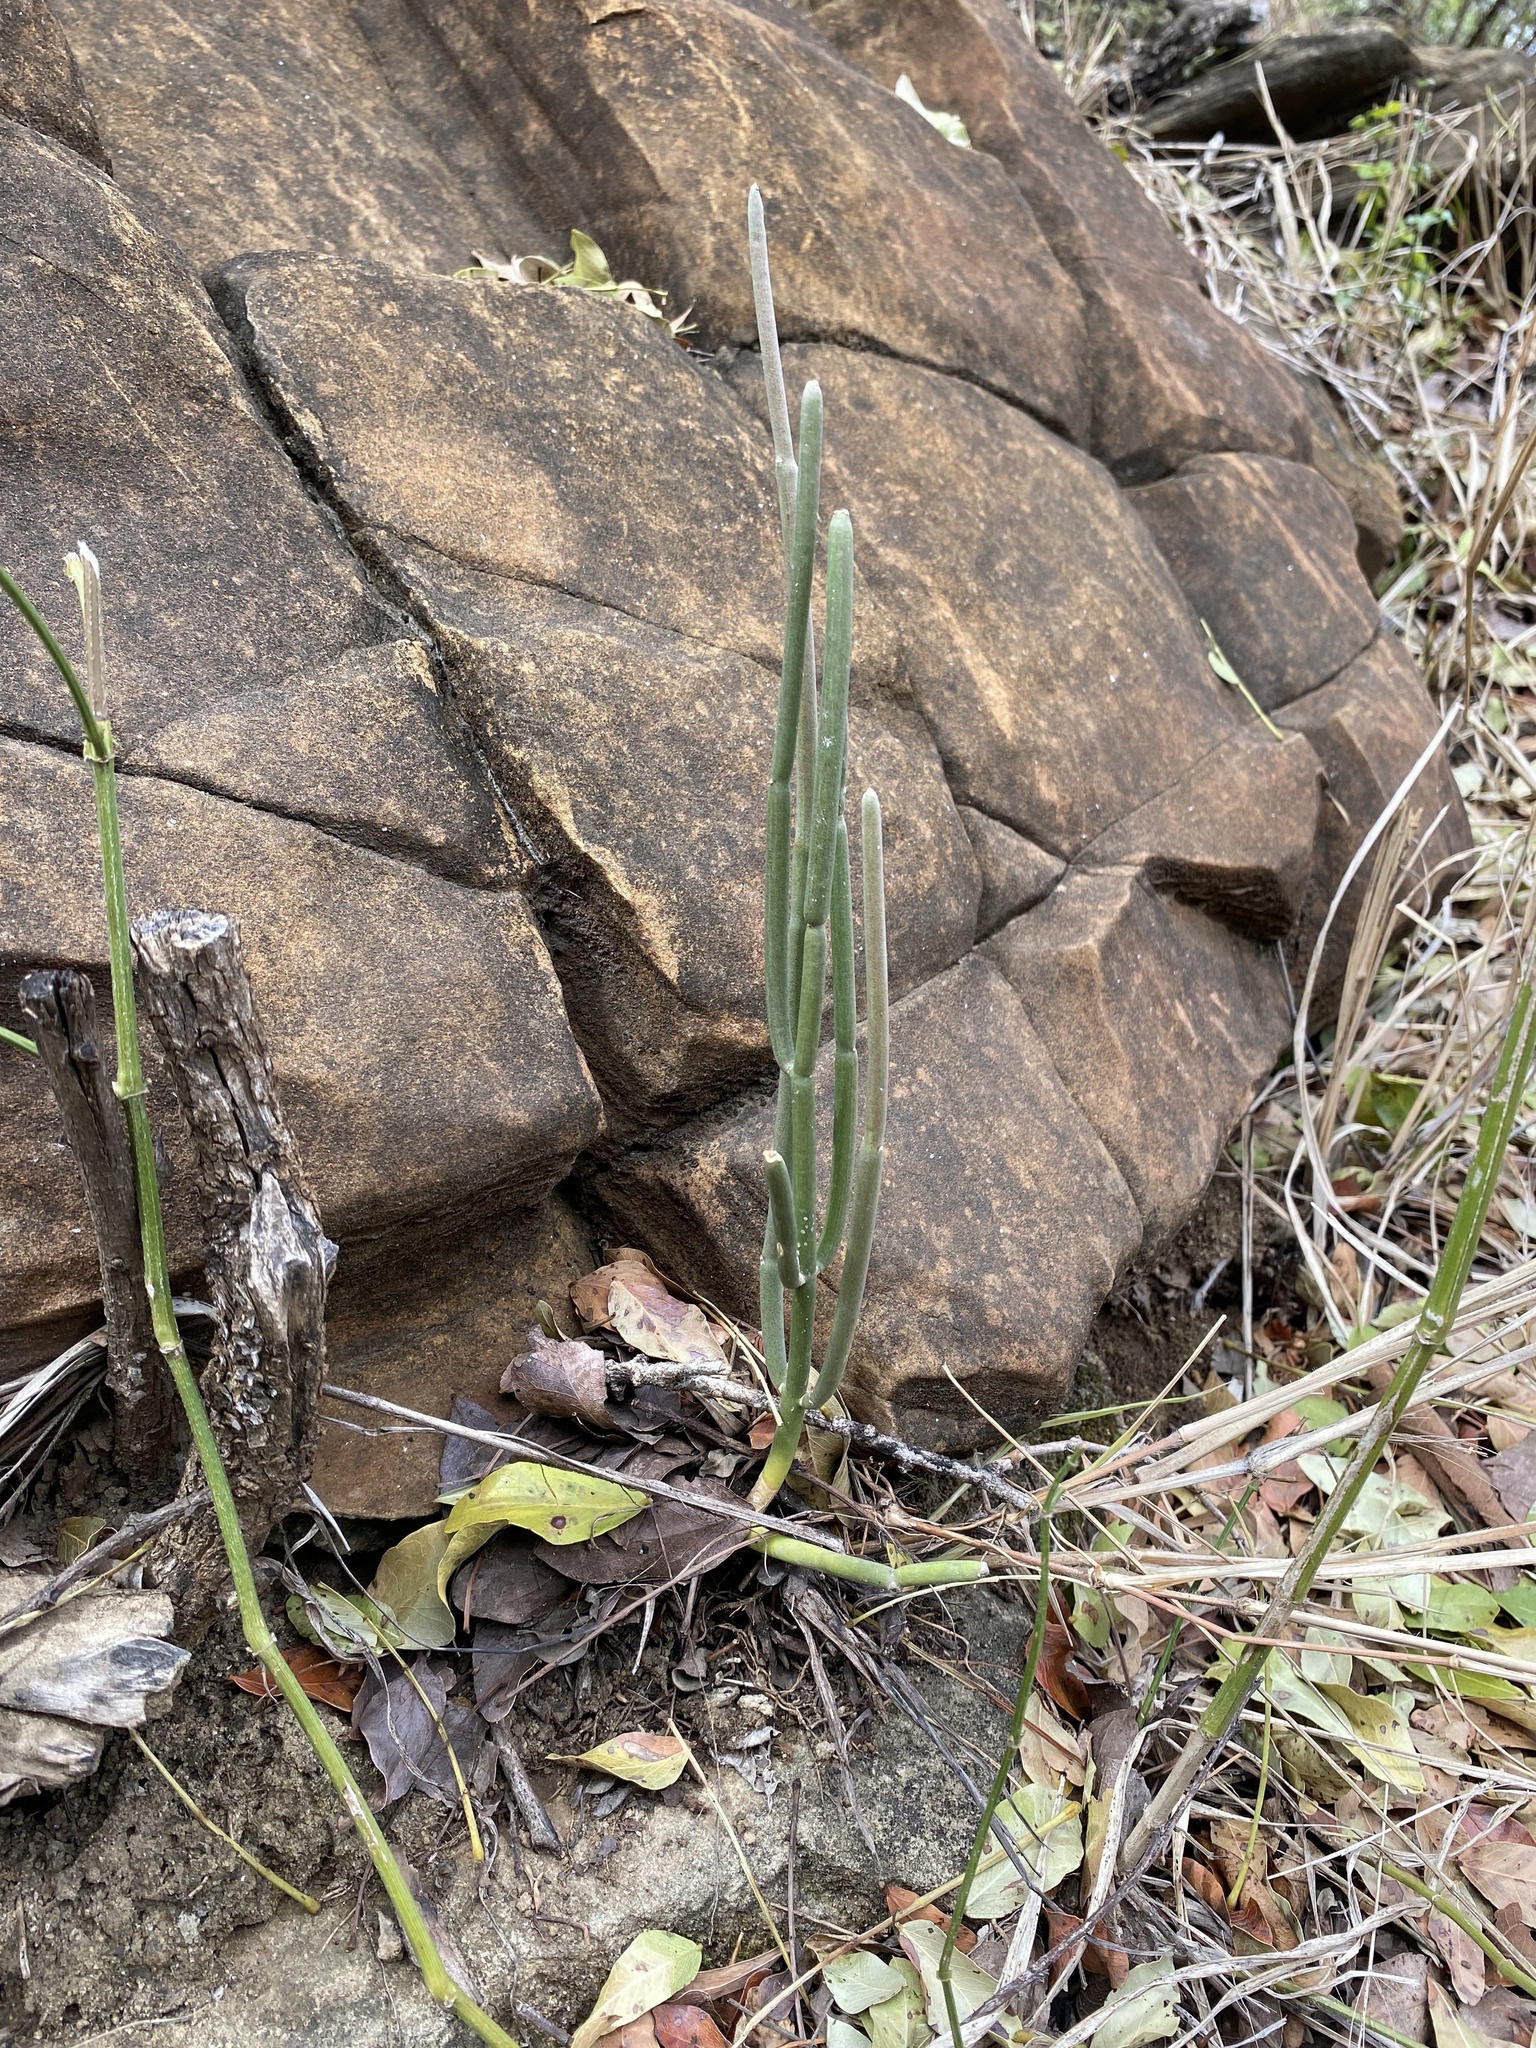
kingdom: Plantae
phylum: Tracheophyta
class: Magnoliopsida
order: Malpighiales
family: Euphorbiaceae
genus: Euphorbia
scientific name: Euphorbia tirucalli
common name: Indiantree spurge
